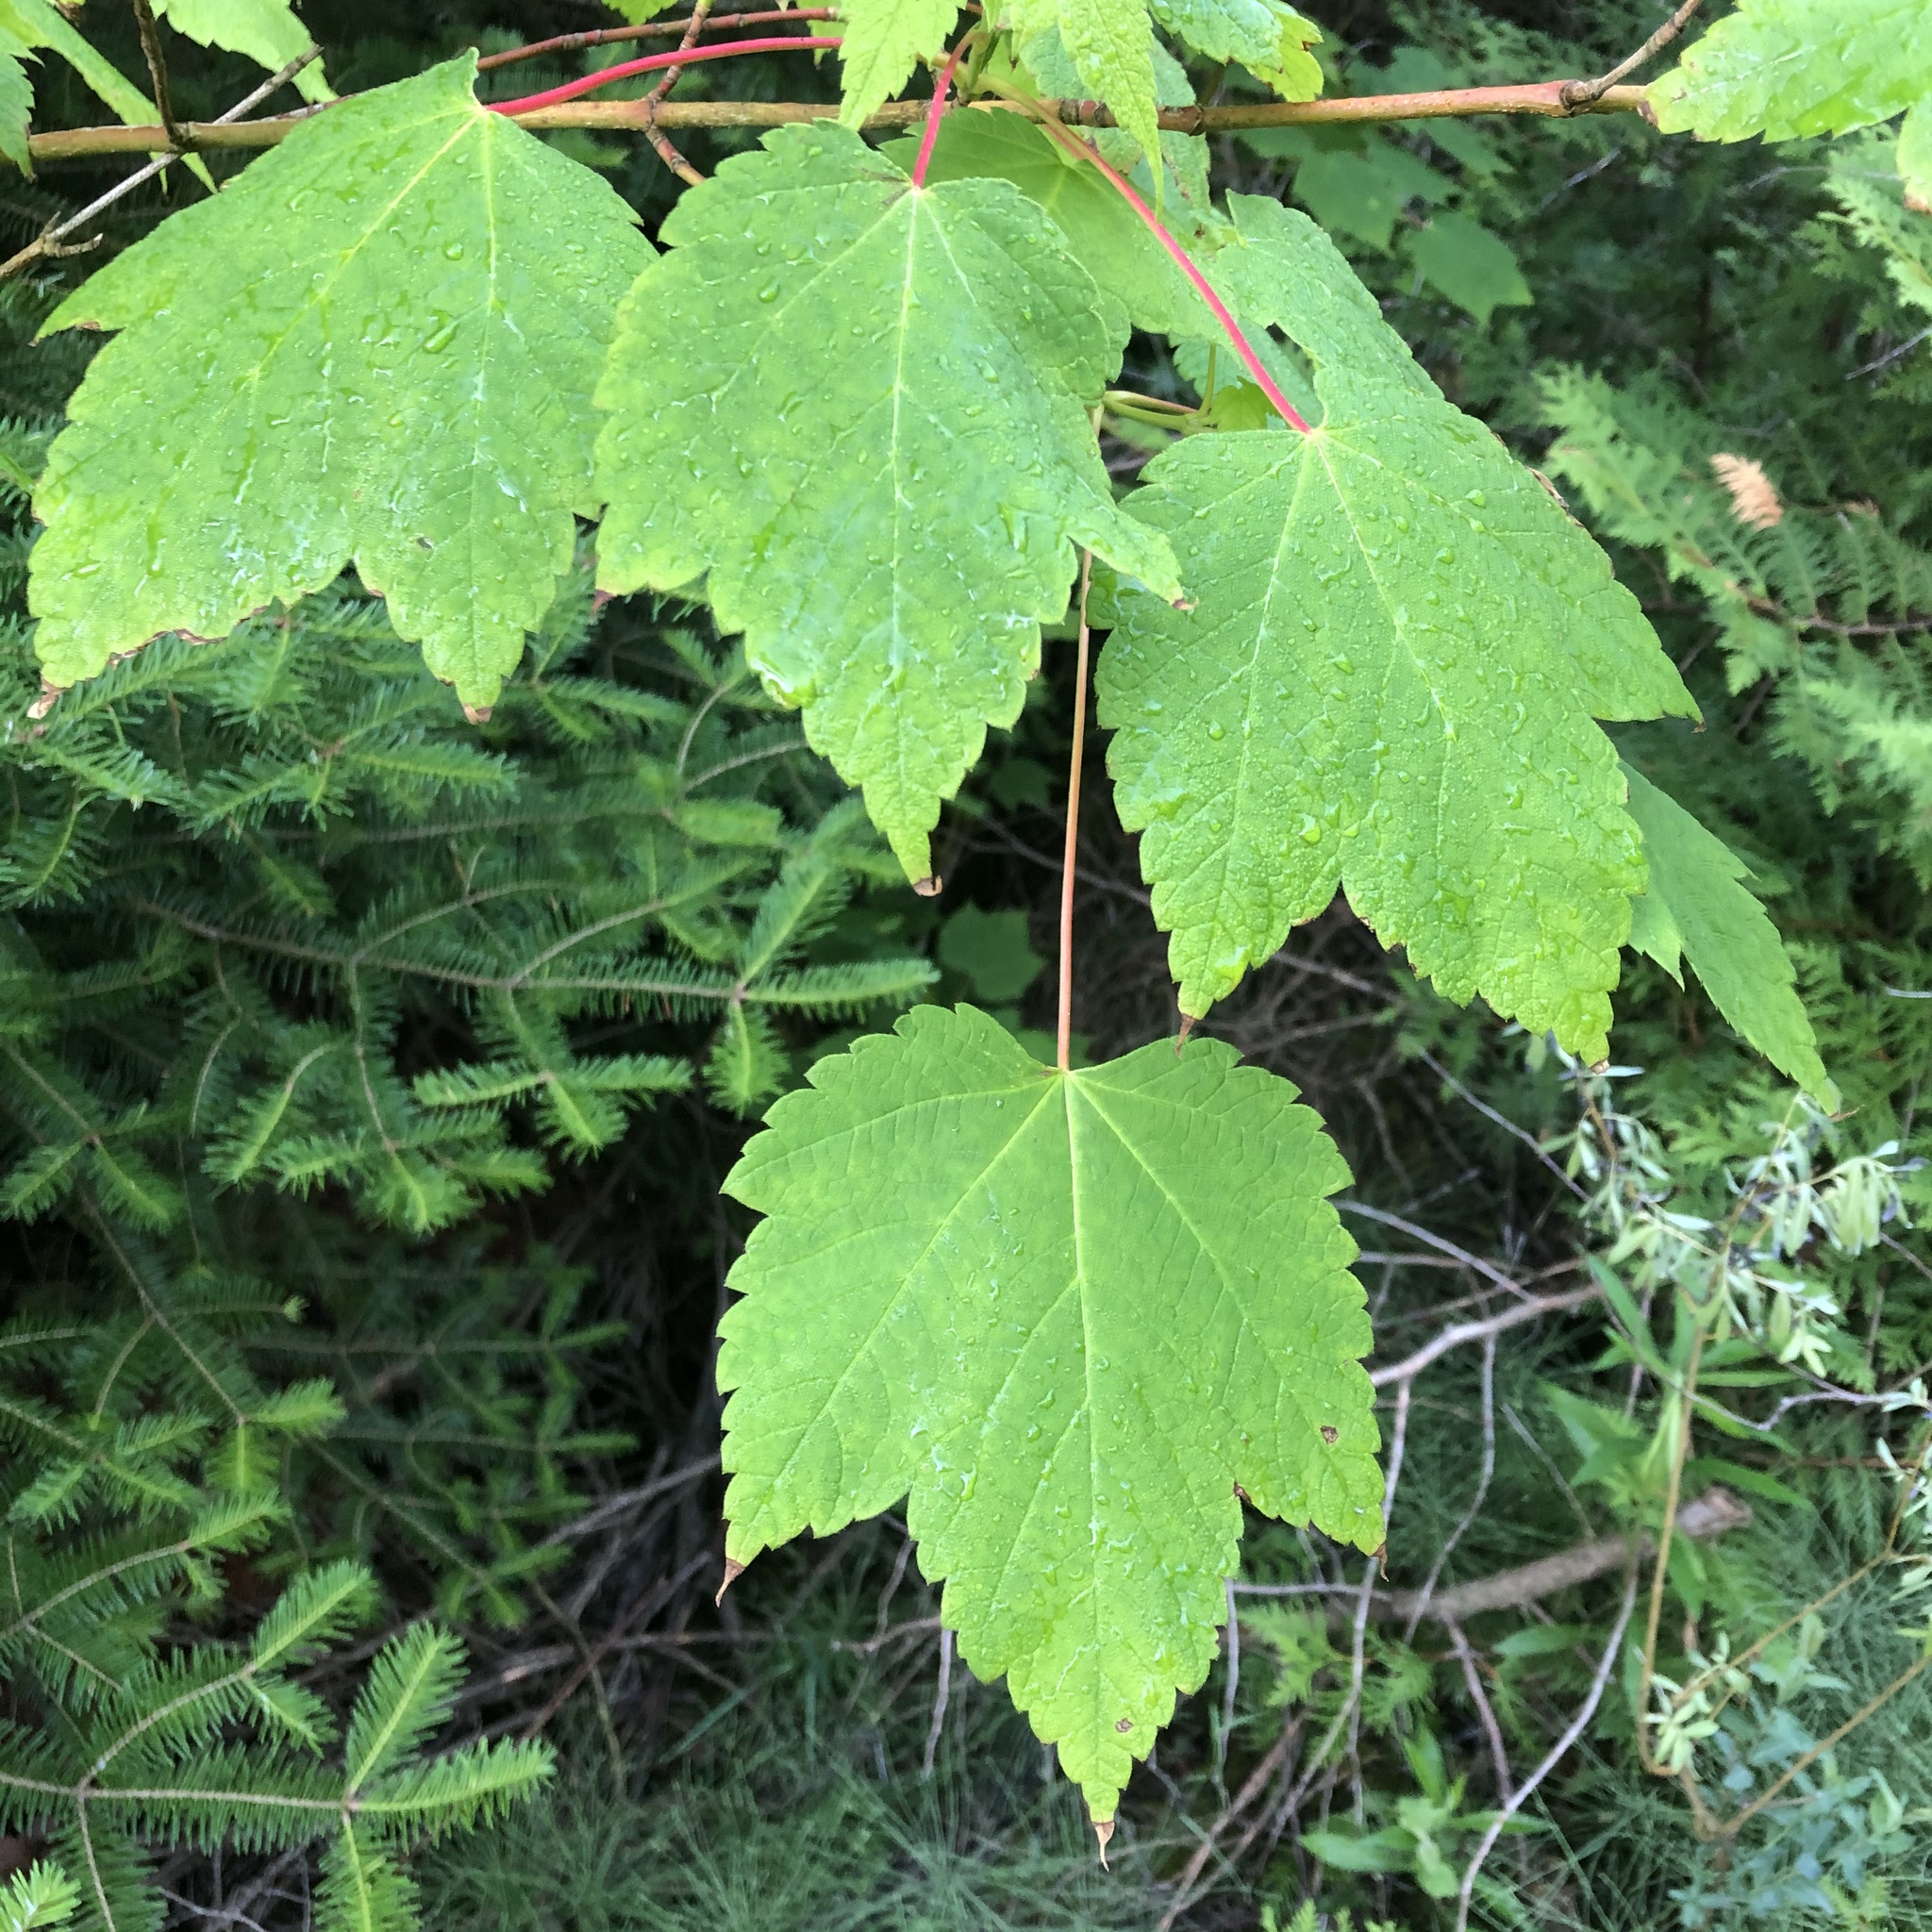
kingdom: Plantae
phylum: Tracheophyta
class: Magnoliopsida
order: Sapindales
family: Sapindaceae
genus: Acer
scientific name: Acer spicatum
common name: Mountain maple
